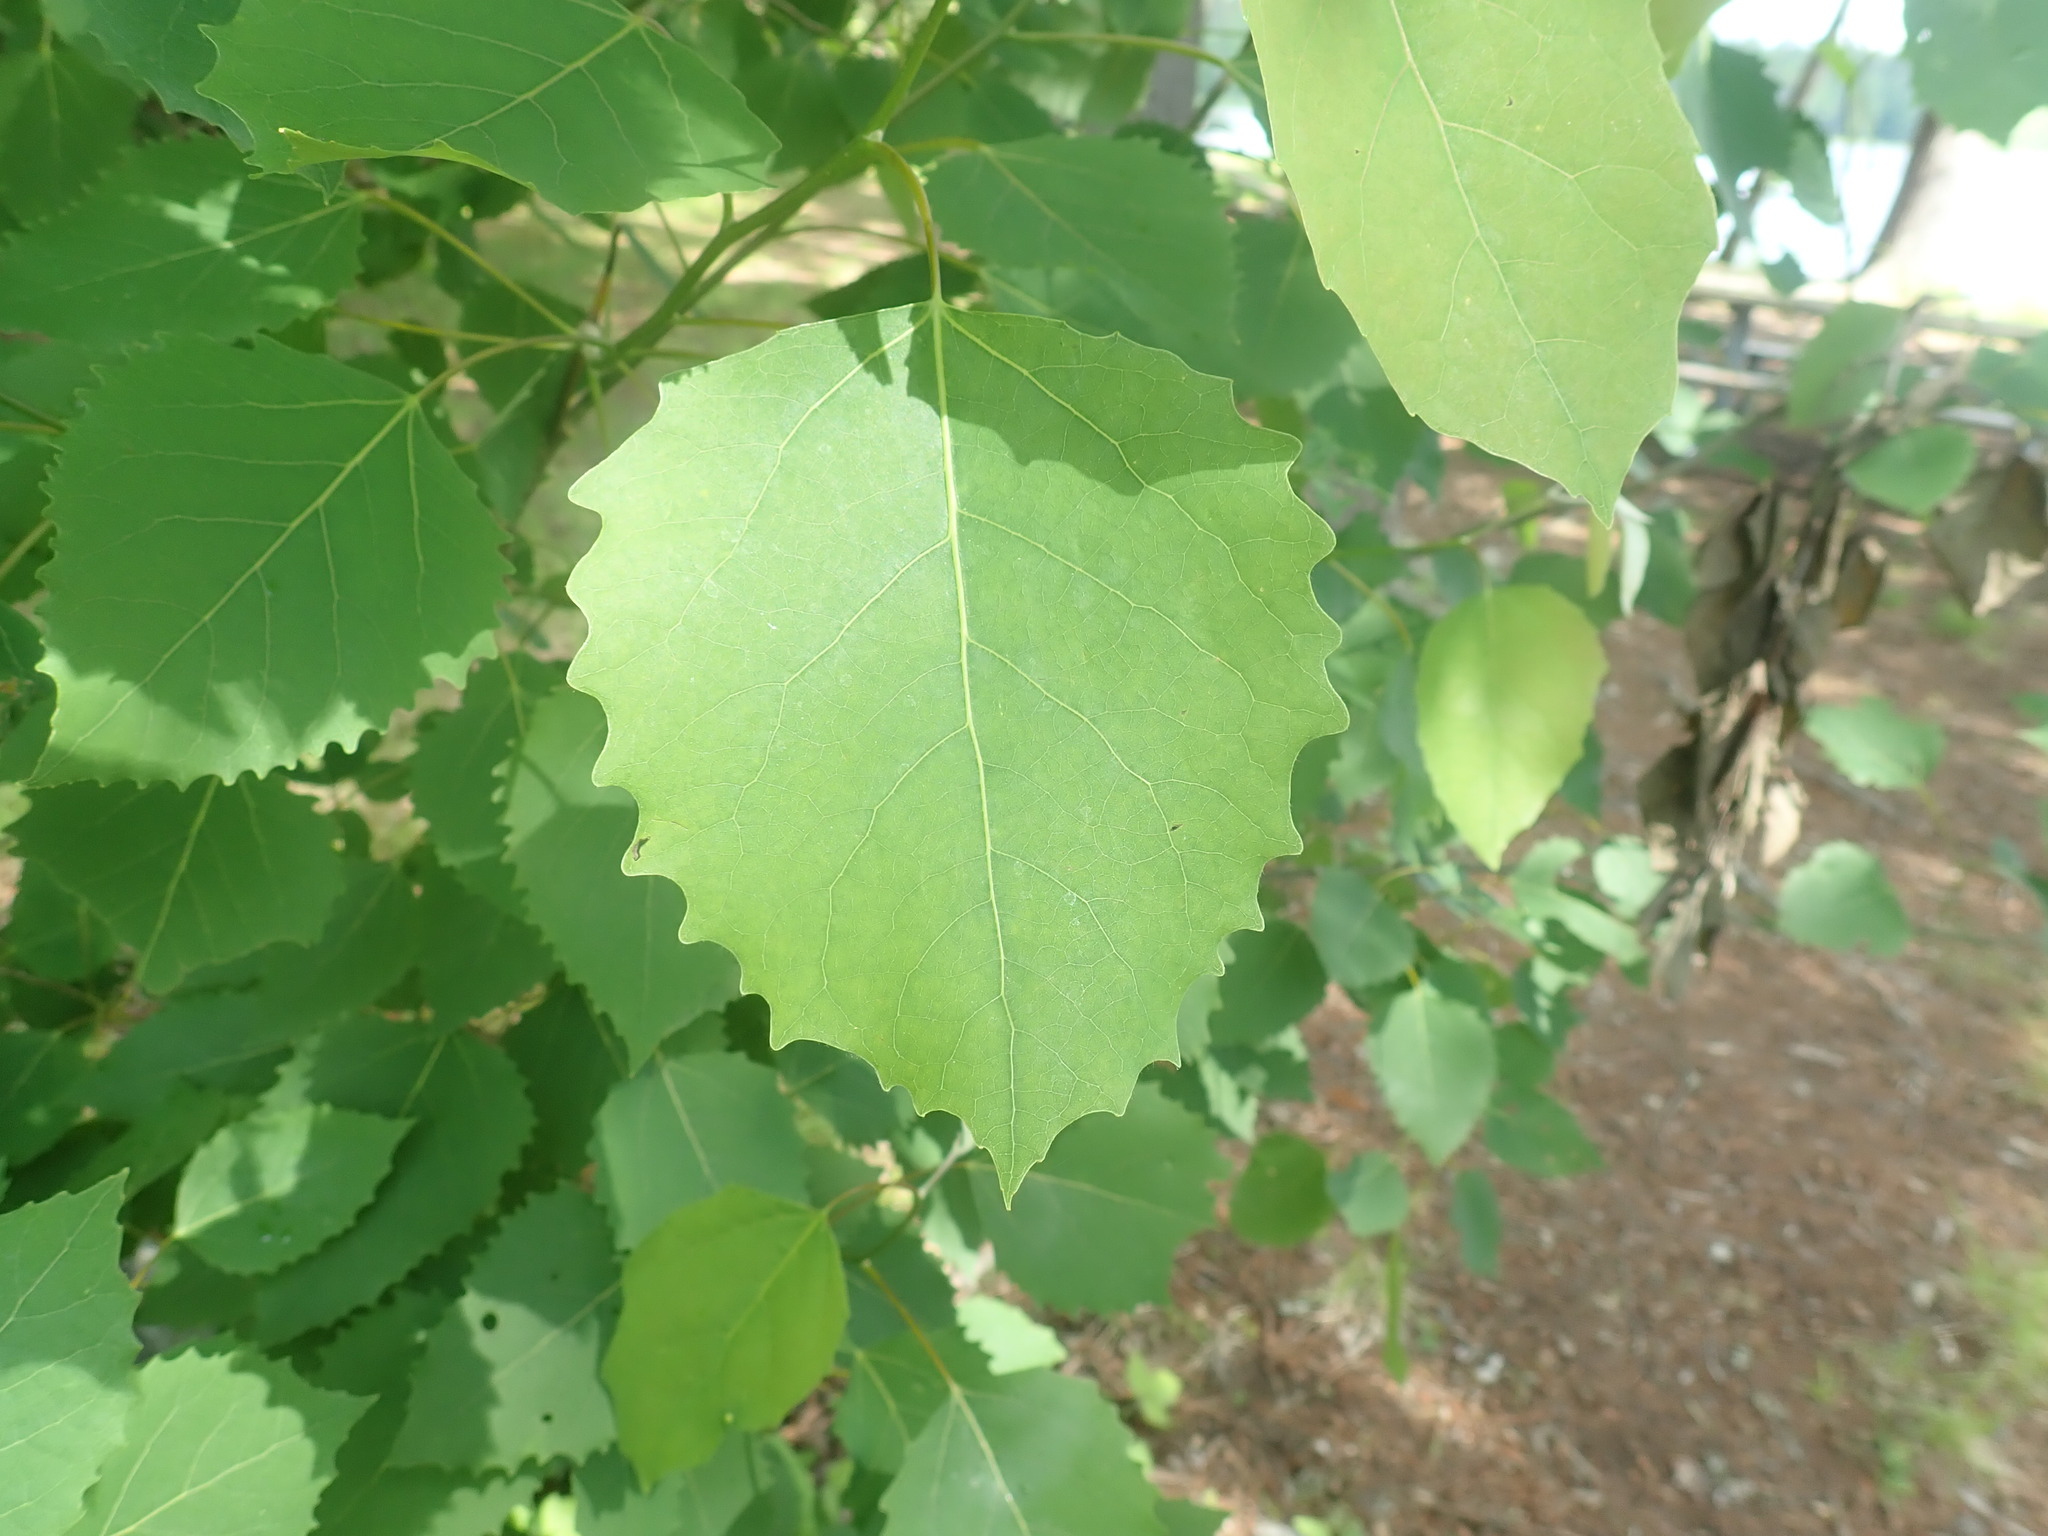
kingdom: Plantae
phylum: Tracheophyta
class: Magnoliopsida
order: Malpighiales
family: Salicaceae
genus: Populus
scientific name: Populus grandidentata
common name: Bigtooth aspen
